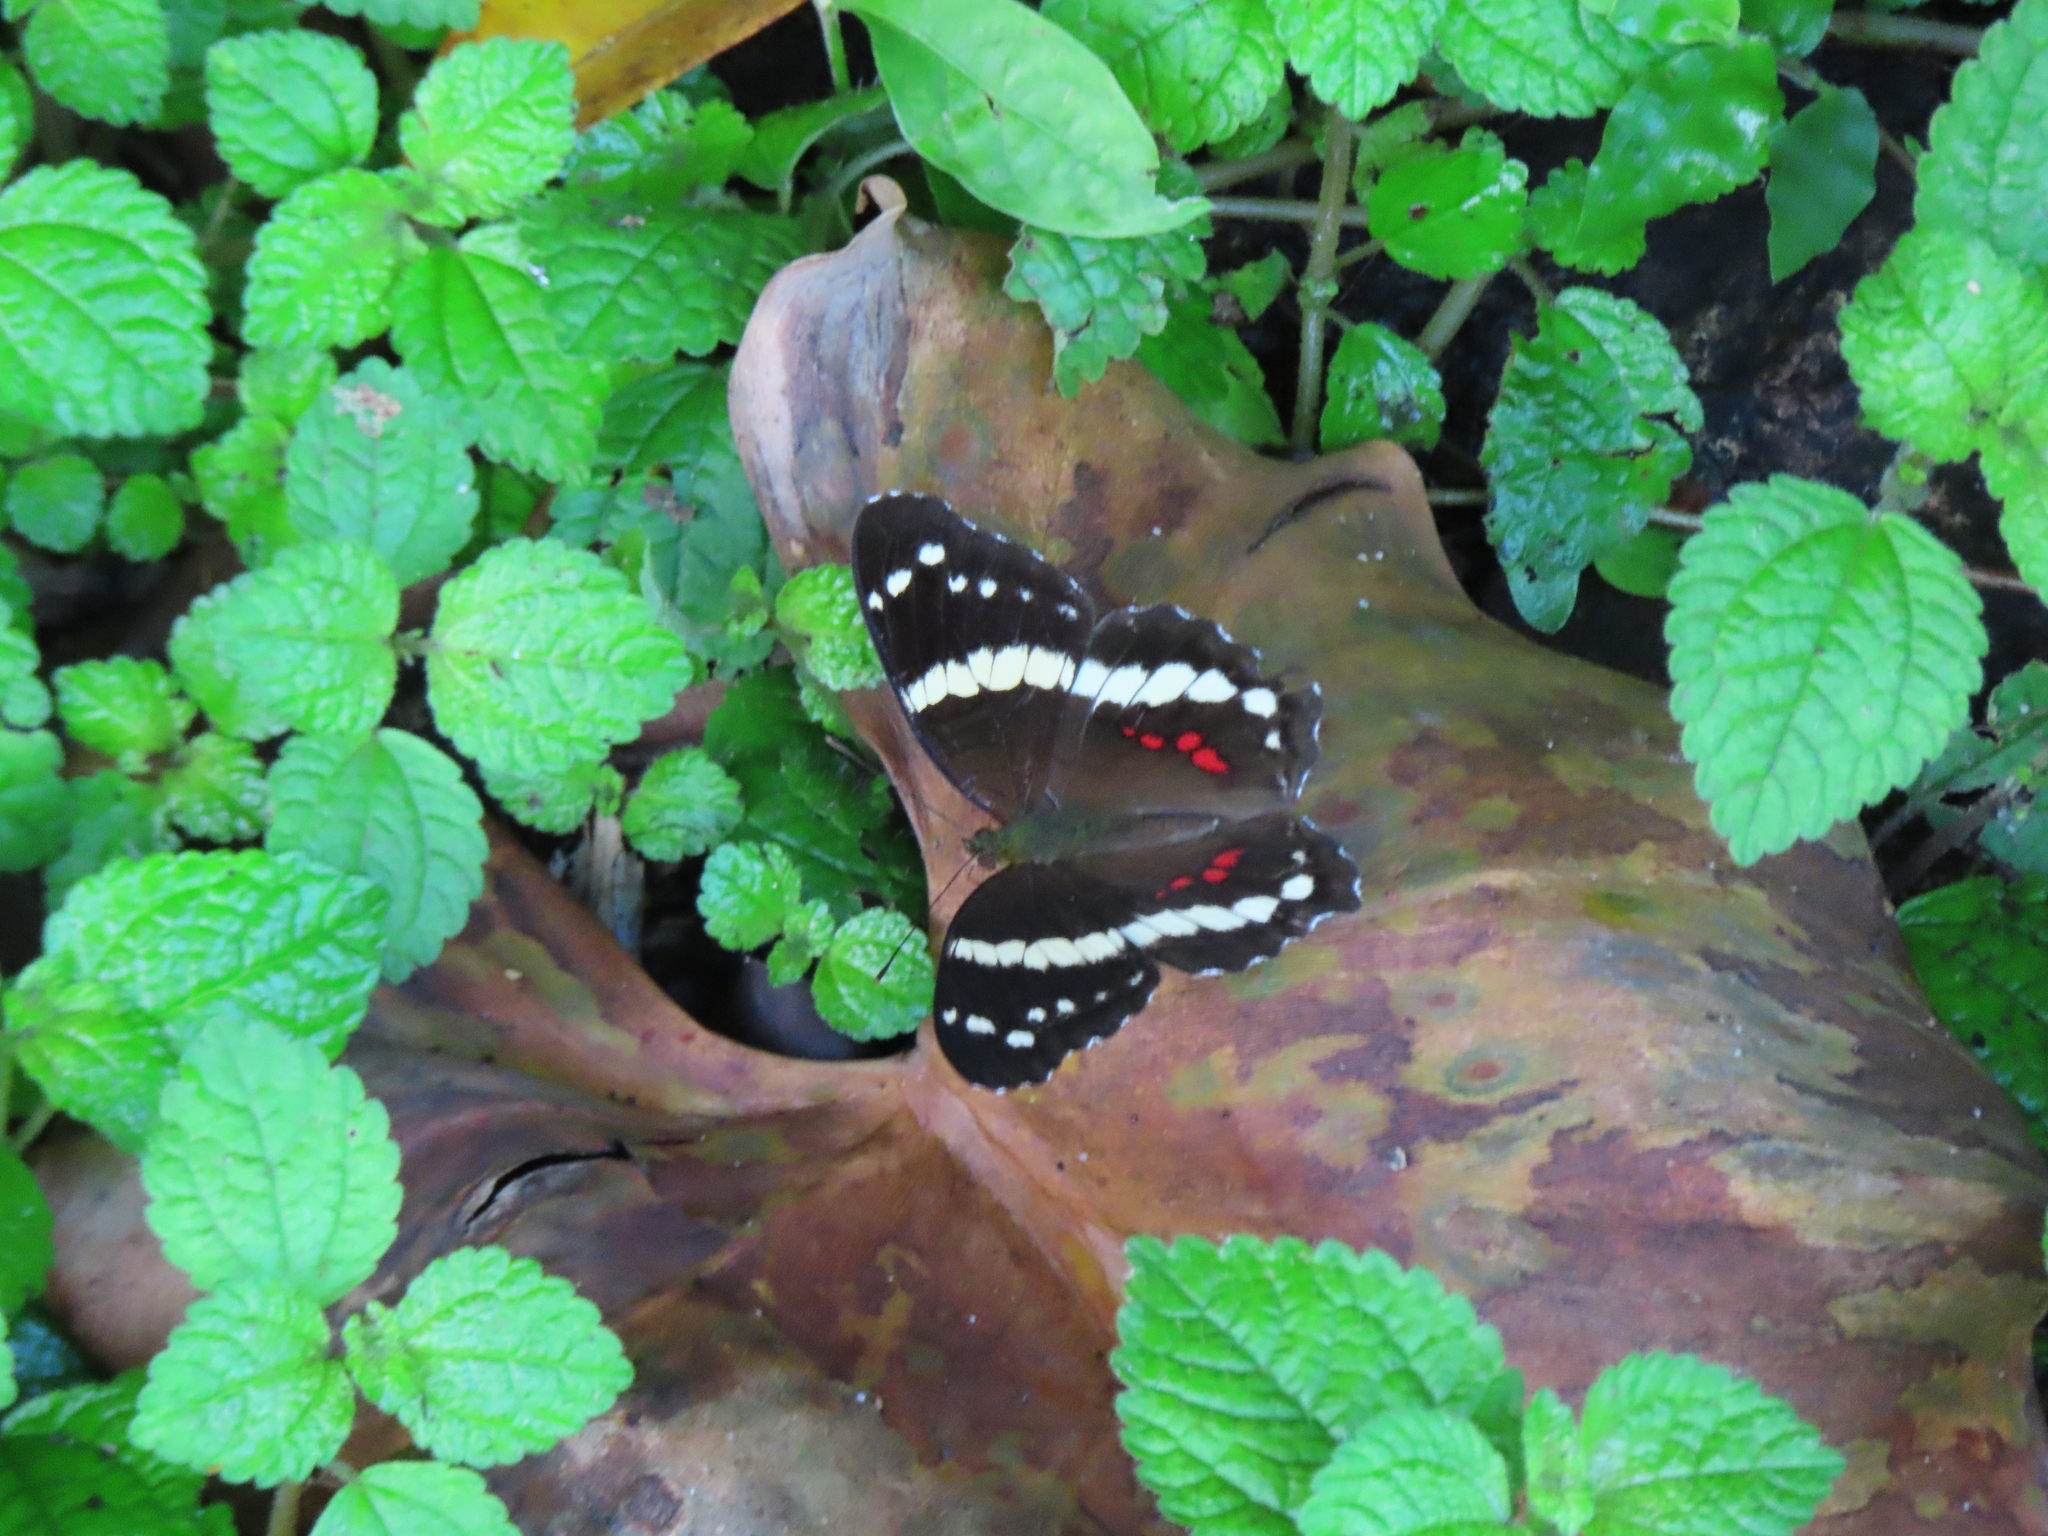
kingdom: Animalia
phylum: Arthropoda
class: Insecta
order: Lepidoptera
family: Nymphalidae
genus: Anartia
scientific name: Anartia fatima
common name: Banded peacock
